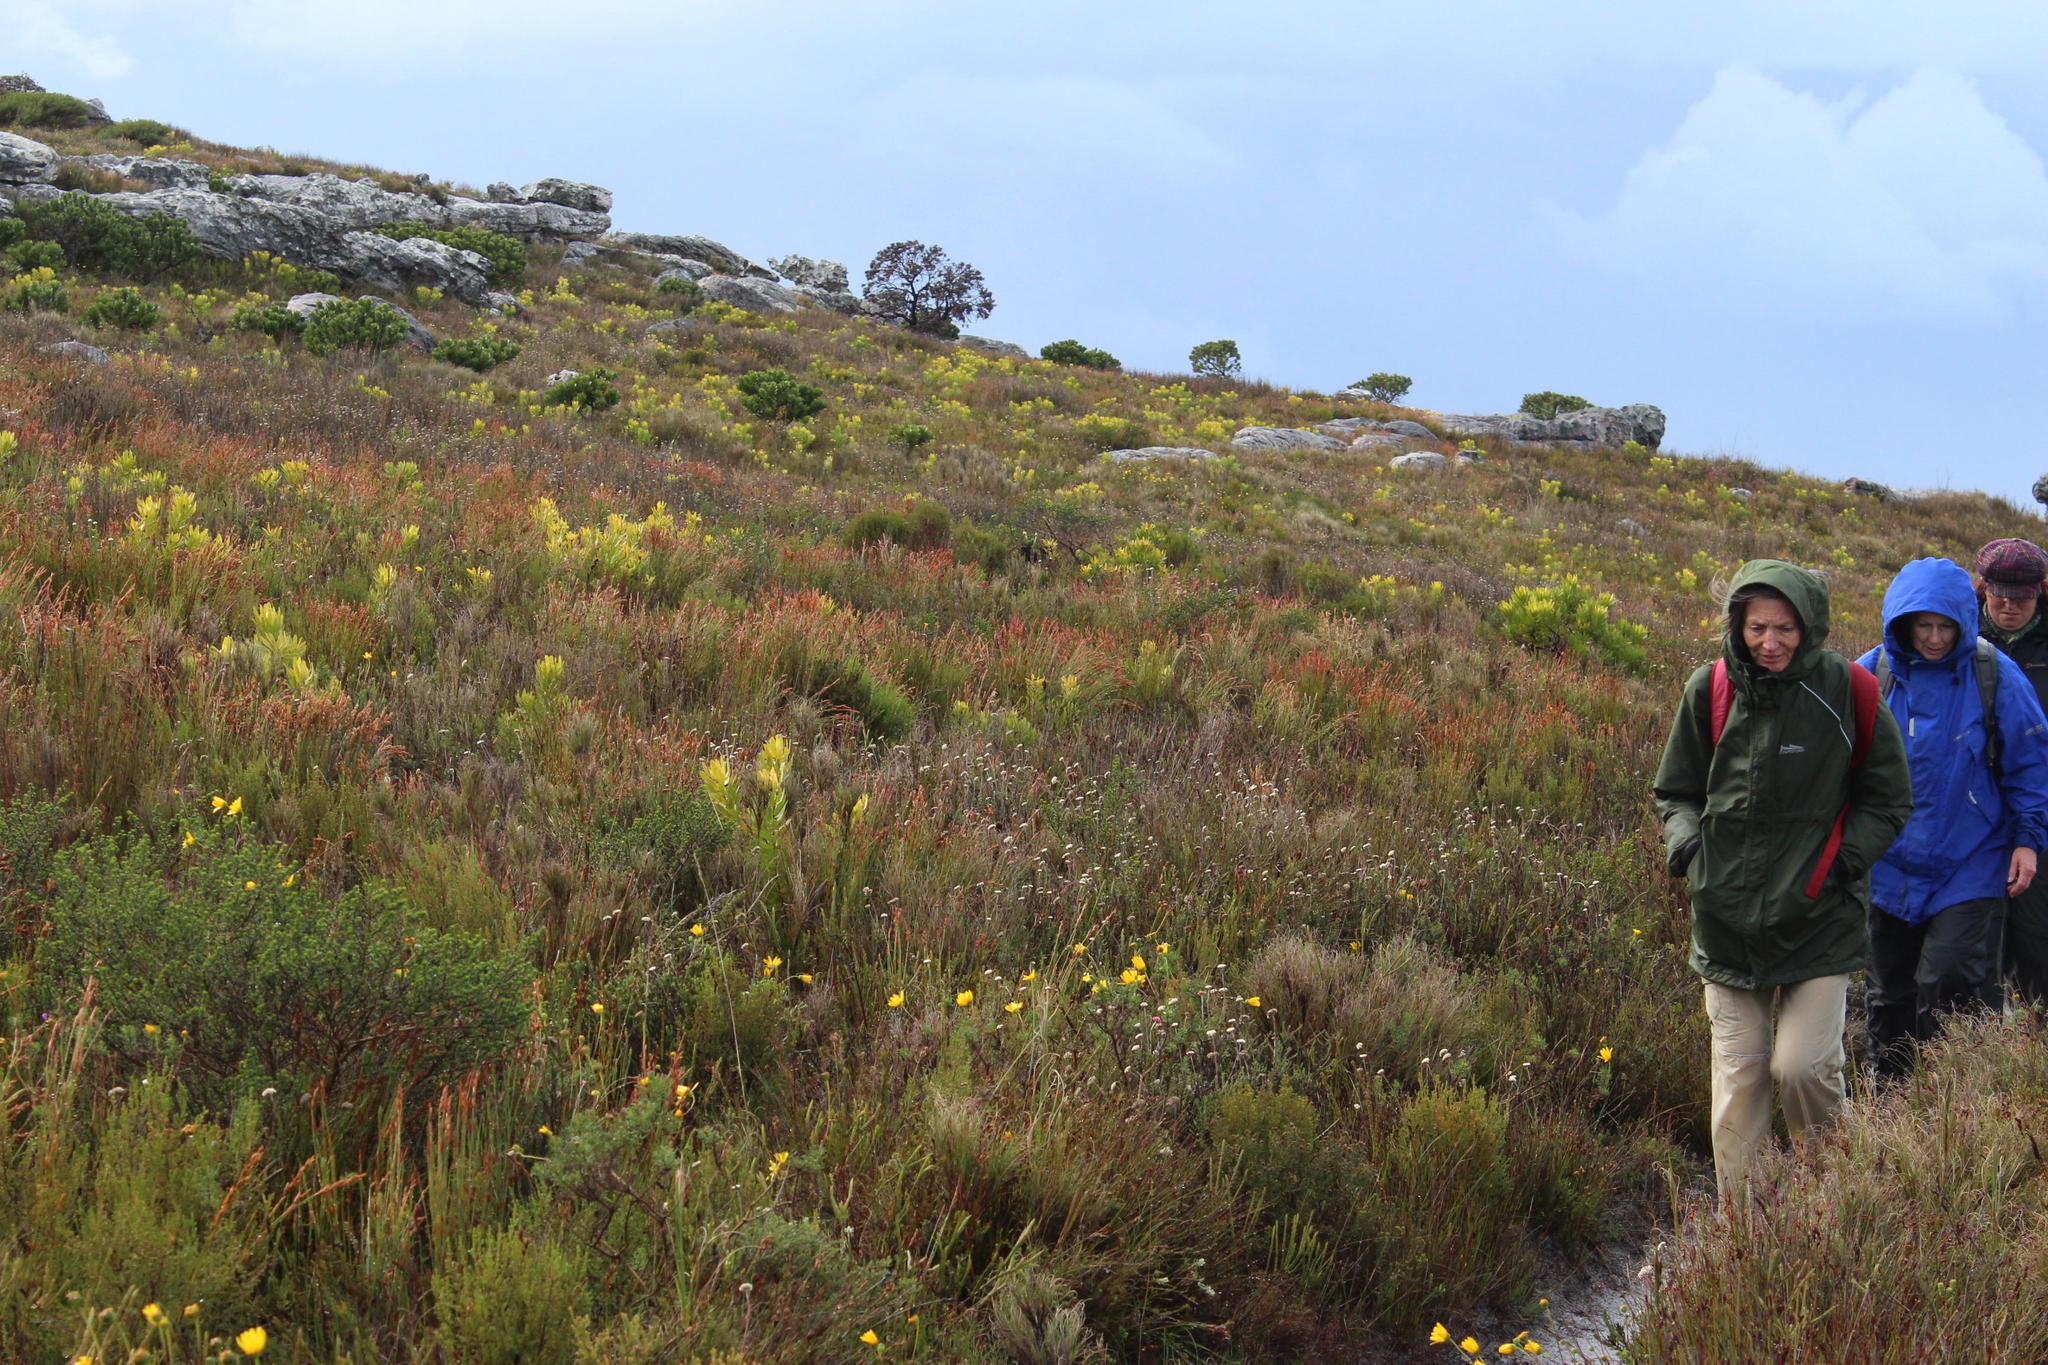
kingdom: Plantae
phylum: Tracheophyta
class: Magnoliopsida
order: Proteales
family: Proteaceae
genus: Leucadendron
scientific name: Leucadendron laureolum
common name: Golden sunshinebush
